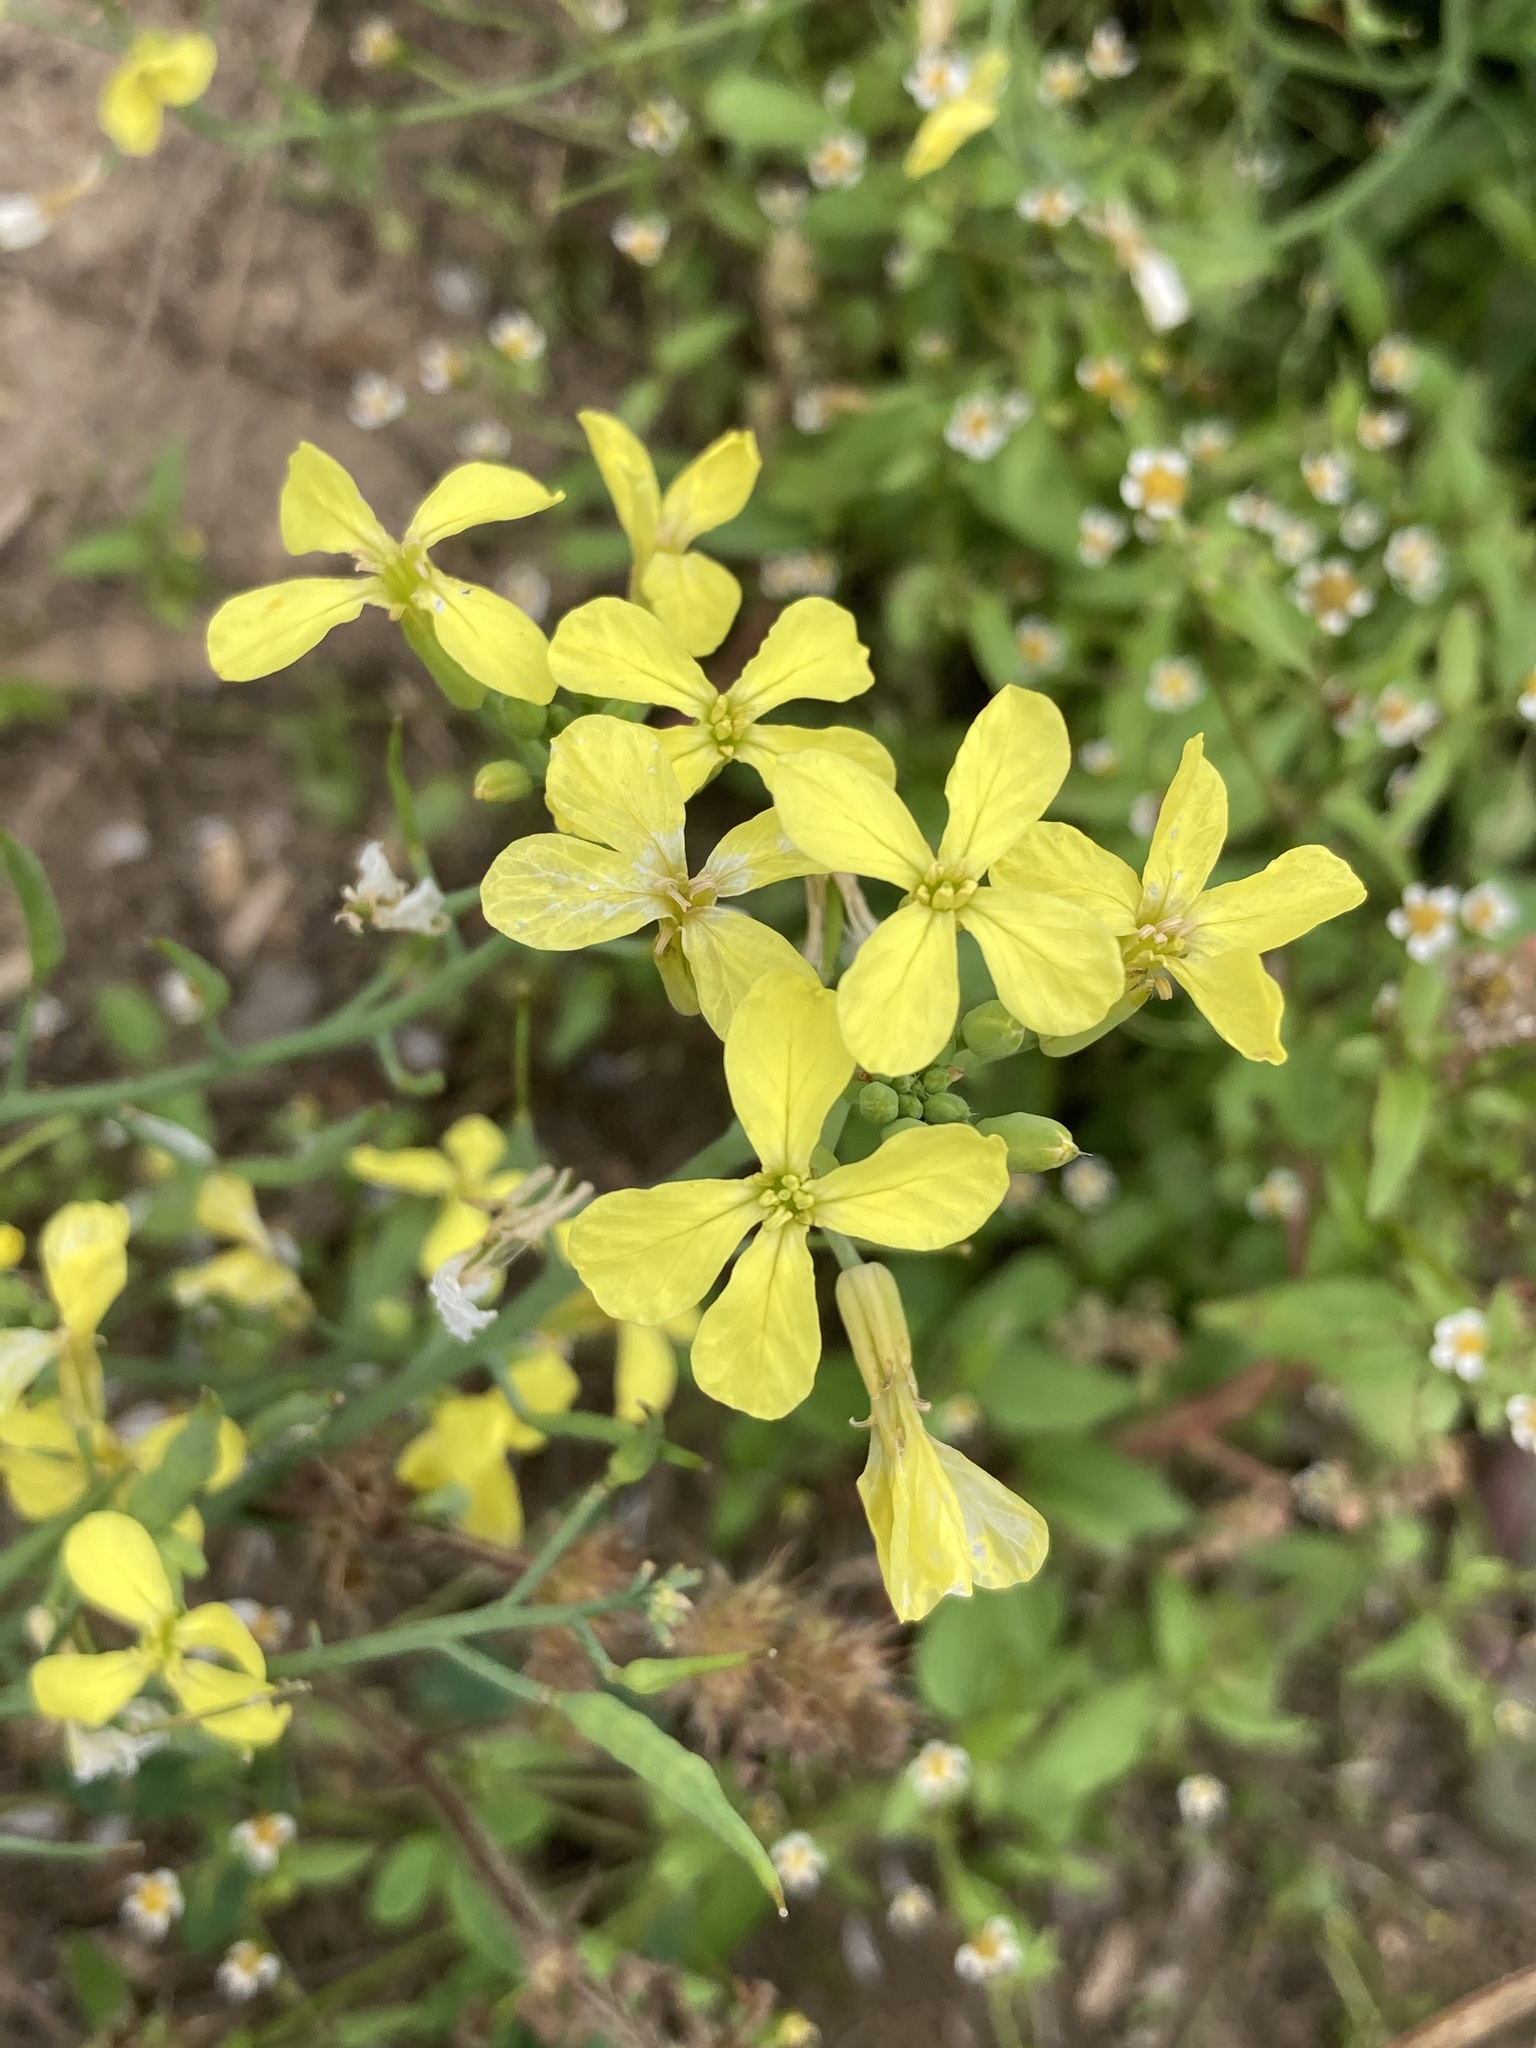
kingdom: Plantae
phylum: Tracheophyta
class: Magnoliopsida
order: Brassicales
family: Brassicaceae
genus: Raphanus
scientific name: Raphanus raphanistrum
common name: Wild radish
